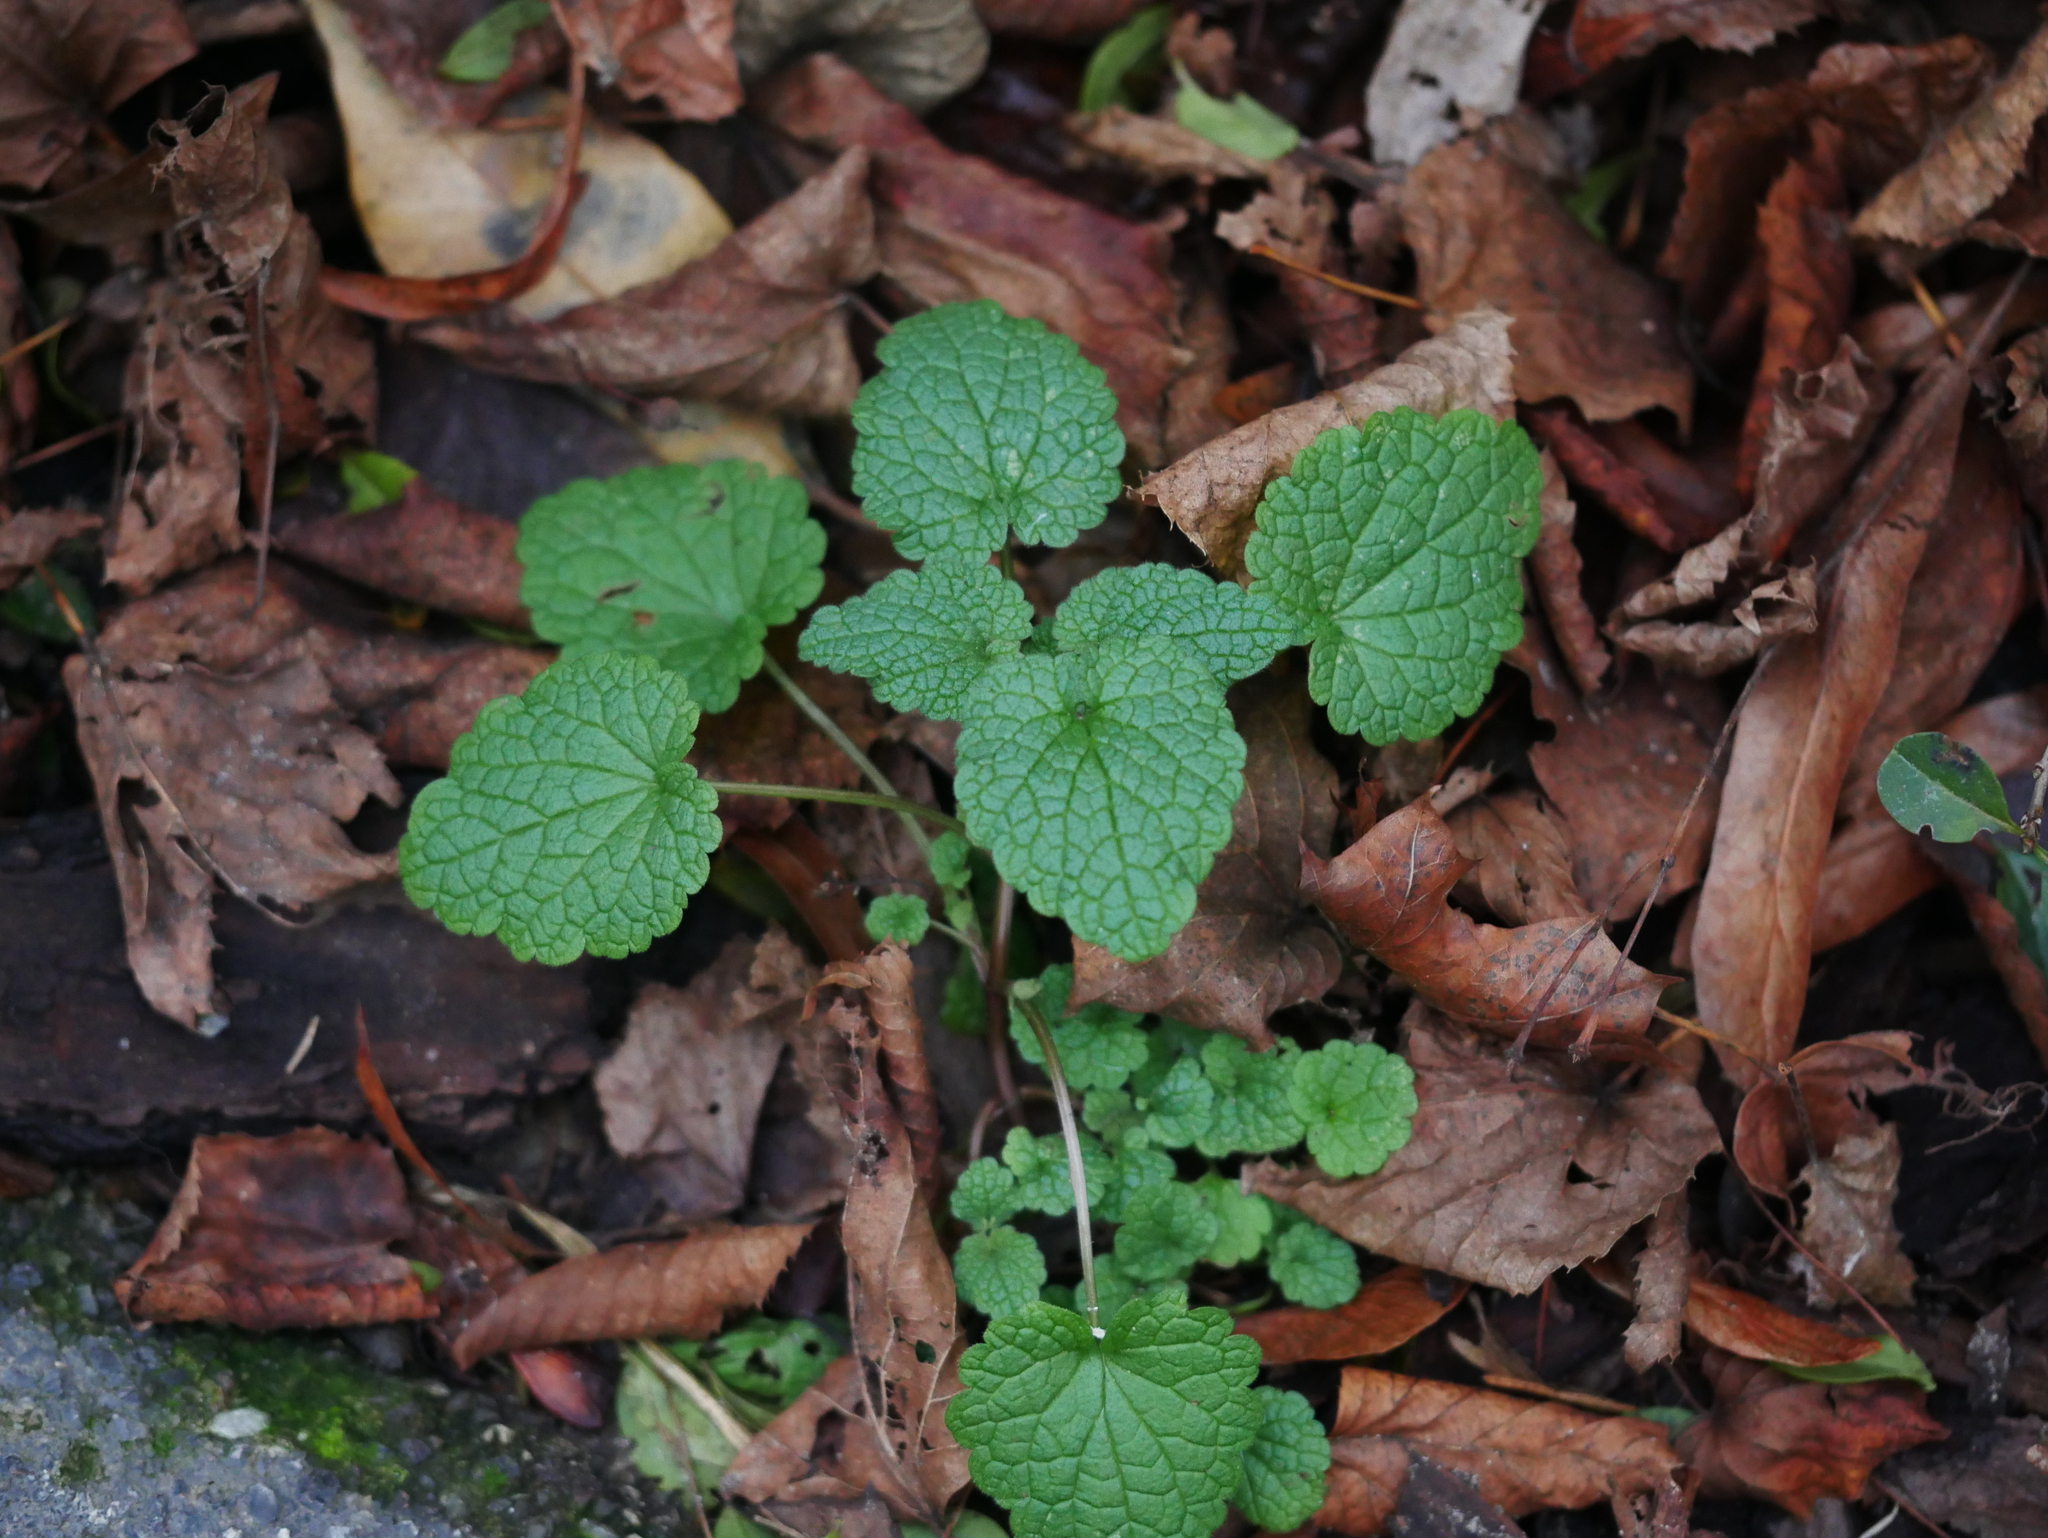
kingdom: Plantae
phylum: Tracheophyta
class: Magnoliopsida
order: Lamiales
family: Lamiaceae
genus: Lamium
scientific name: Lamium purpureum
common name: Red dead-nettle
